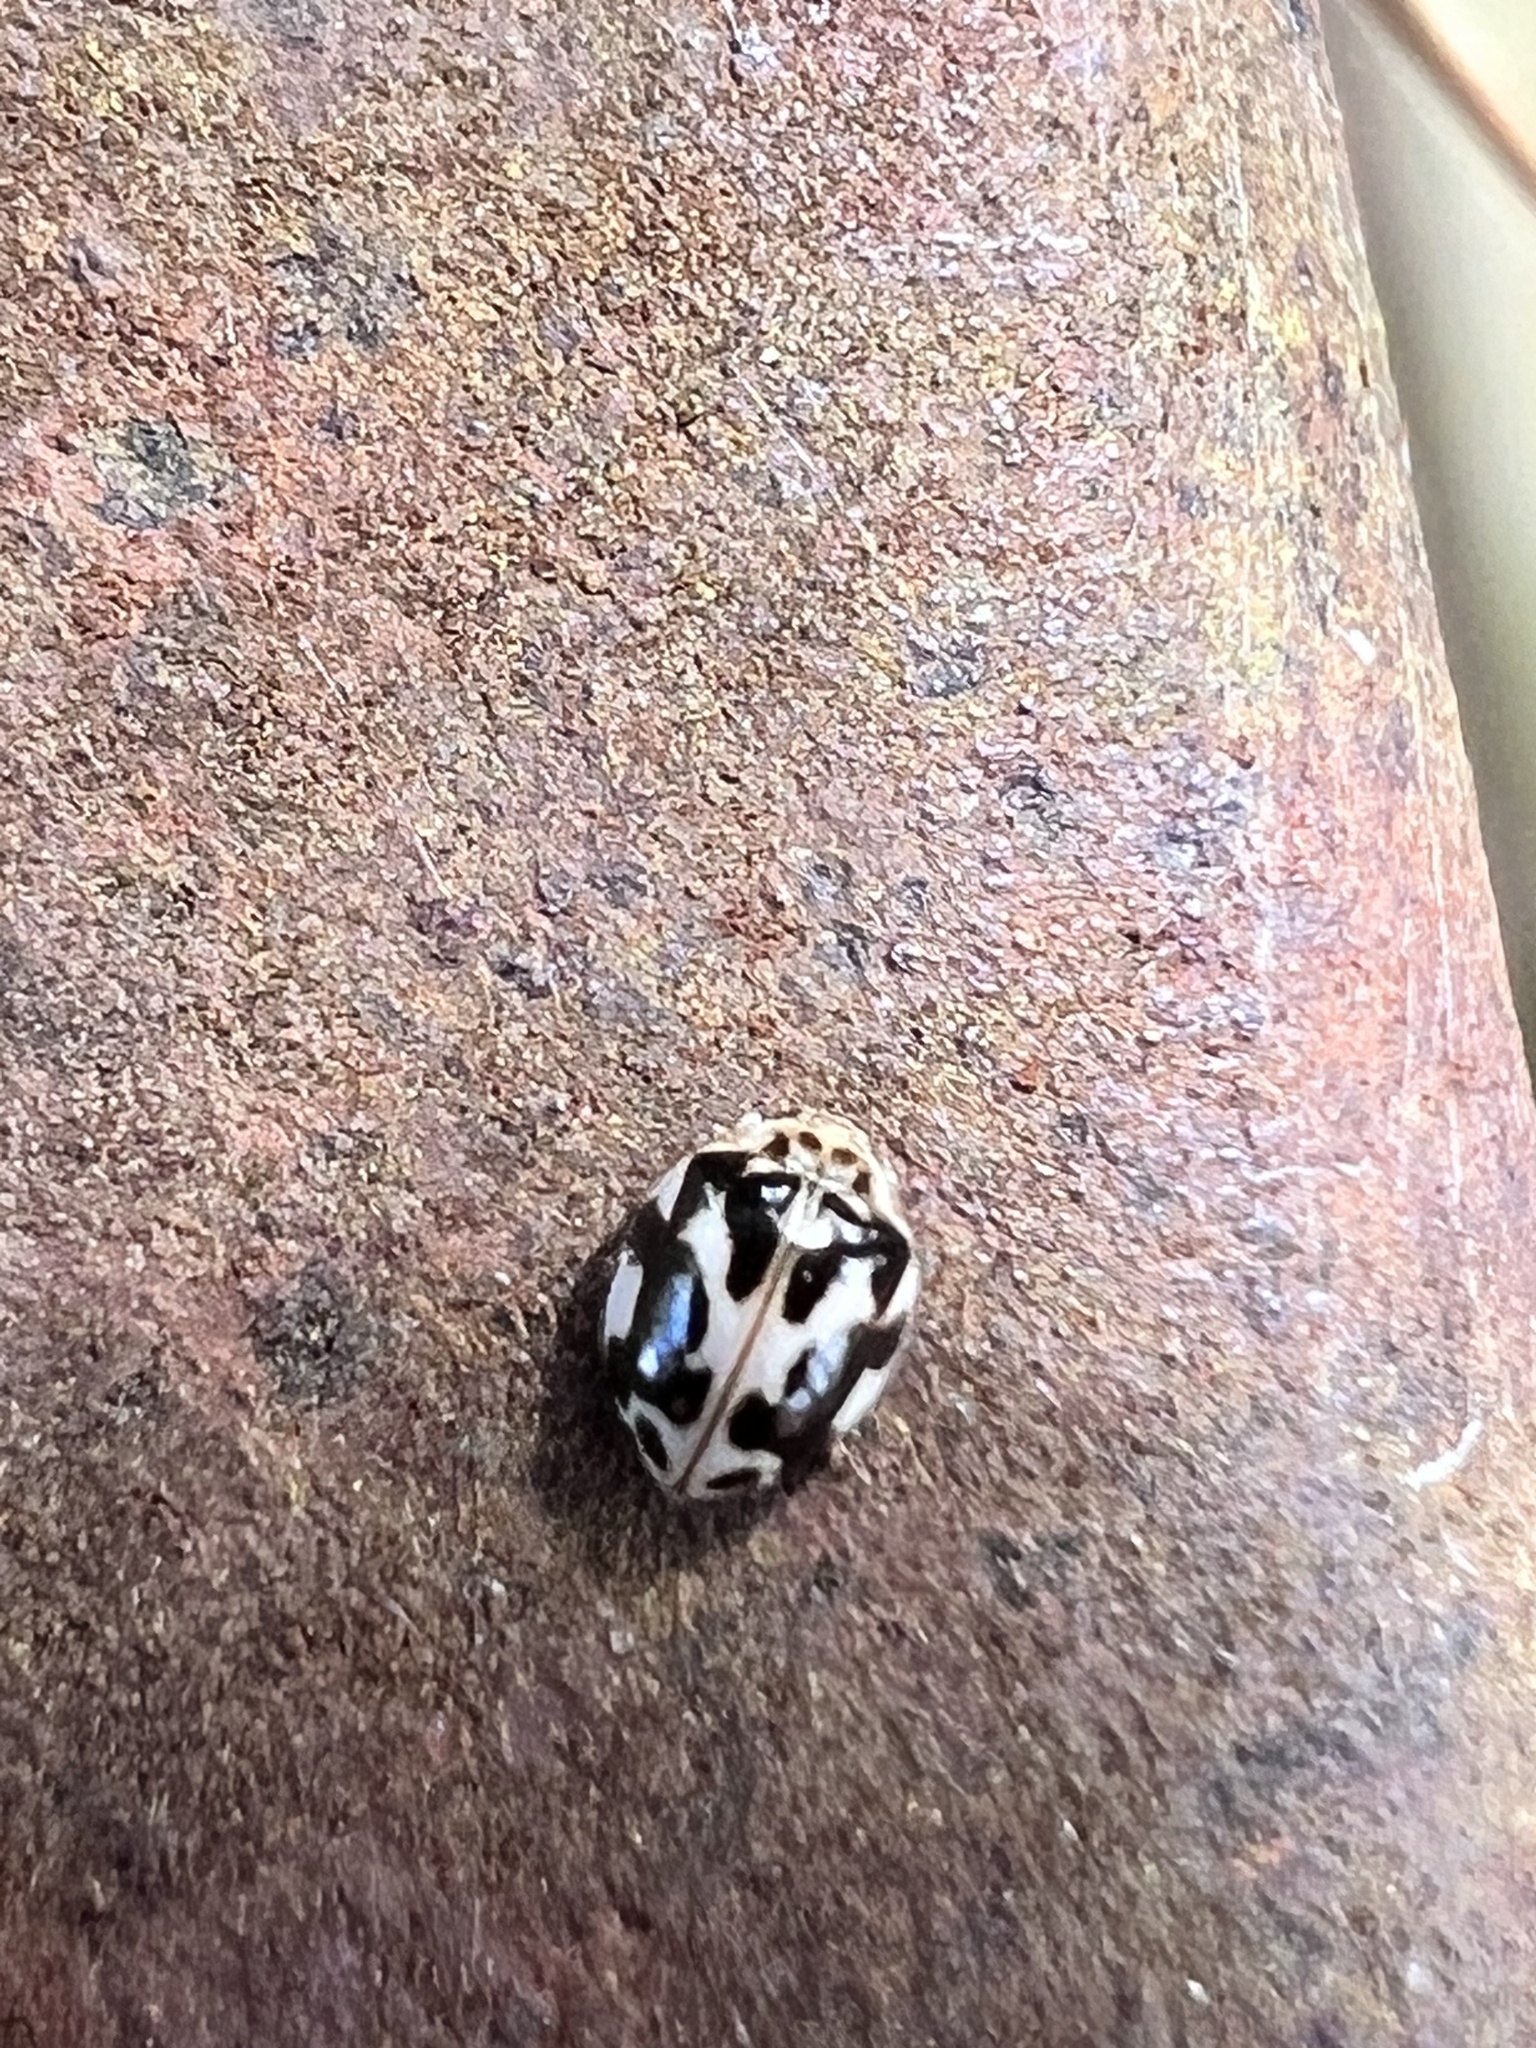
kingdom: Animalia
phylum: Arthropoda
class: Insecta
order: Coleoptera
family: Coccinellidae
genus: Psyllobora
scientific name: Psyllobora vigintimaculata
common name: Ladybird beetle
